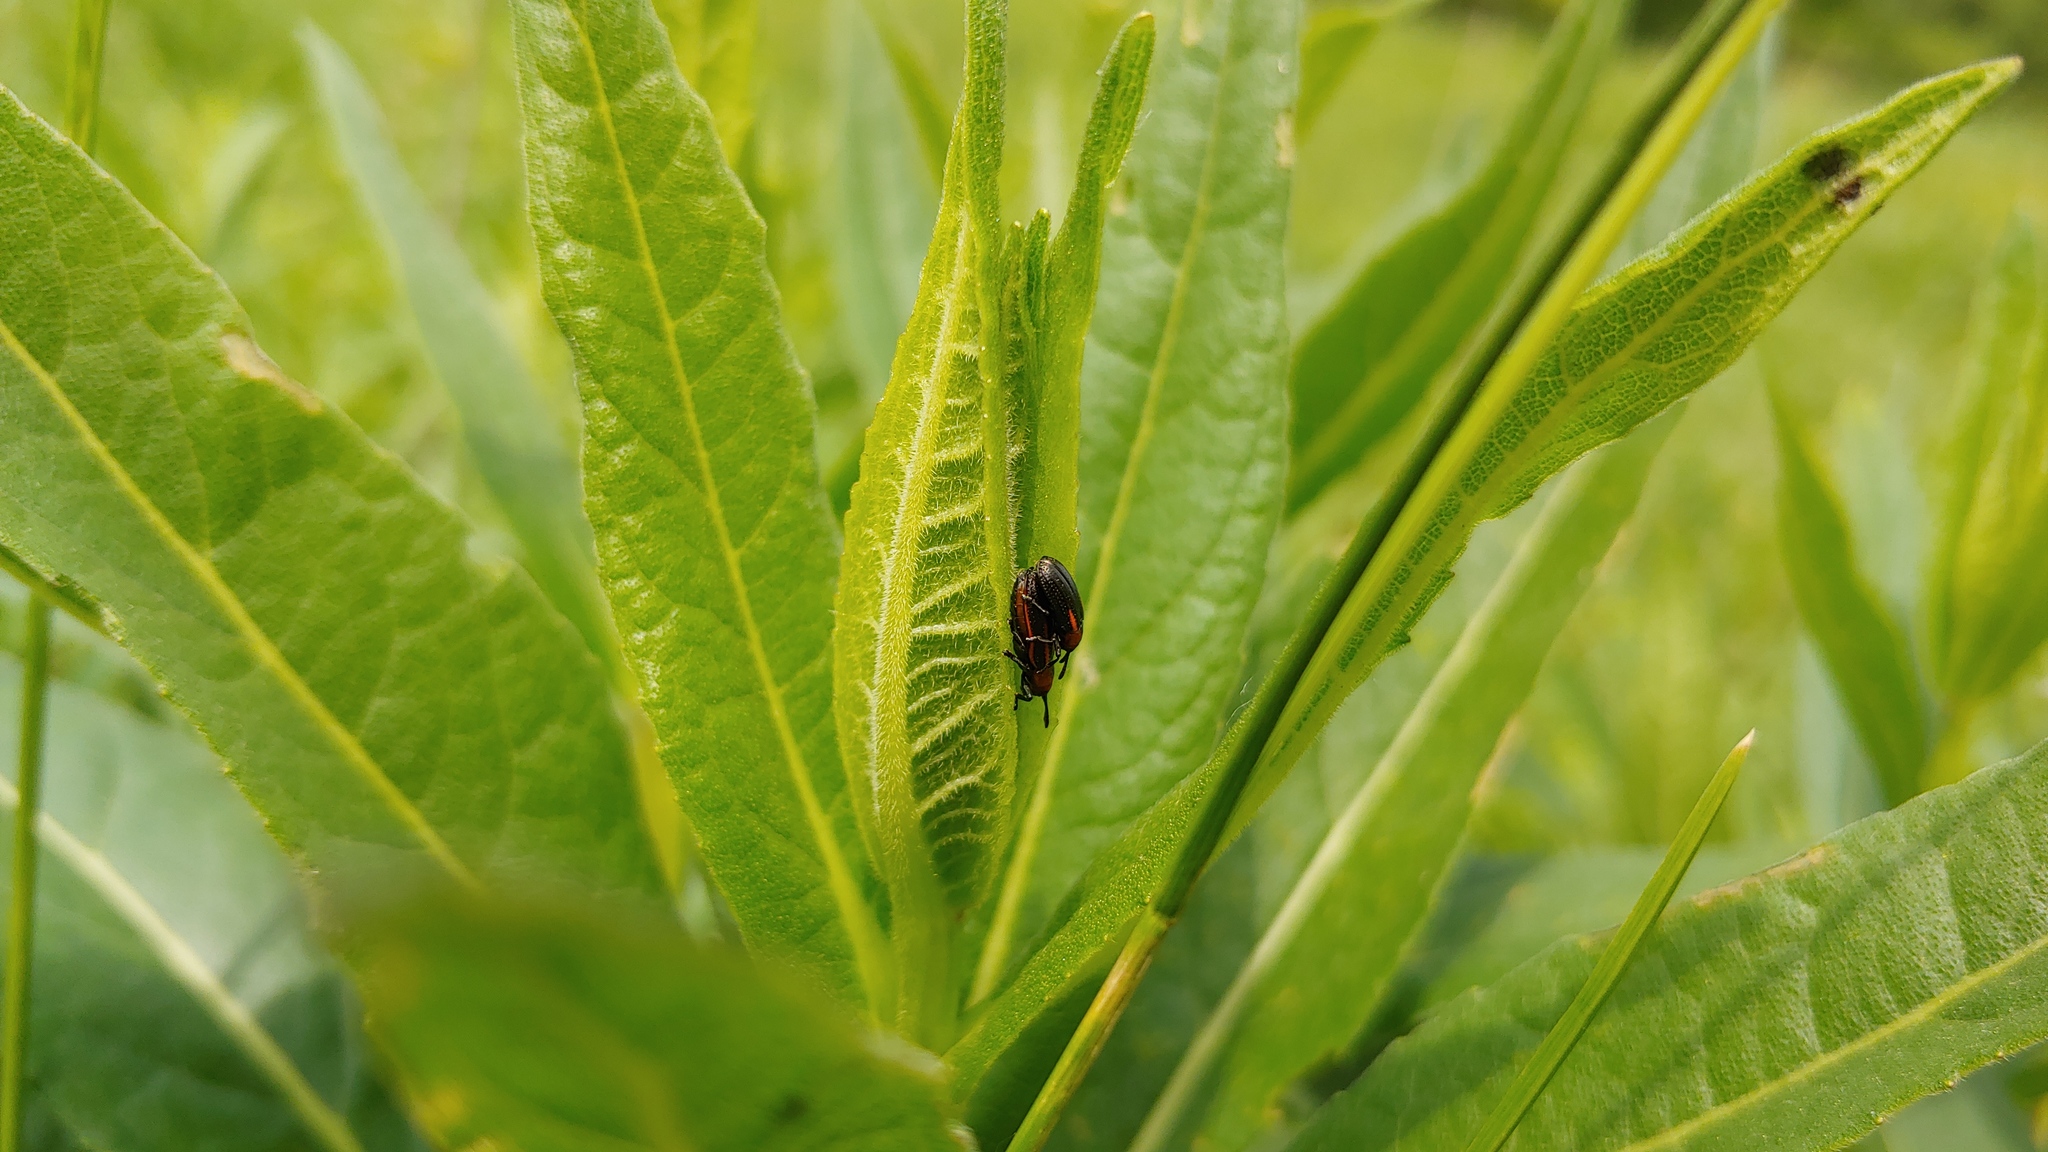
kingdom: Animalia
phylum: Arthropoda
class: Insecta
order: Coleoptera
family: Chrysomelidae
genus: Microrhopala
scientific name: Microrhopala vittata
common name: Goldenrod leaf miner beetle
